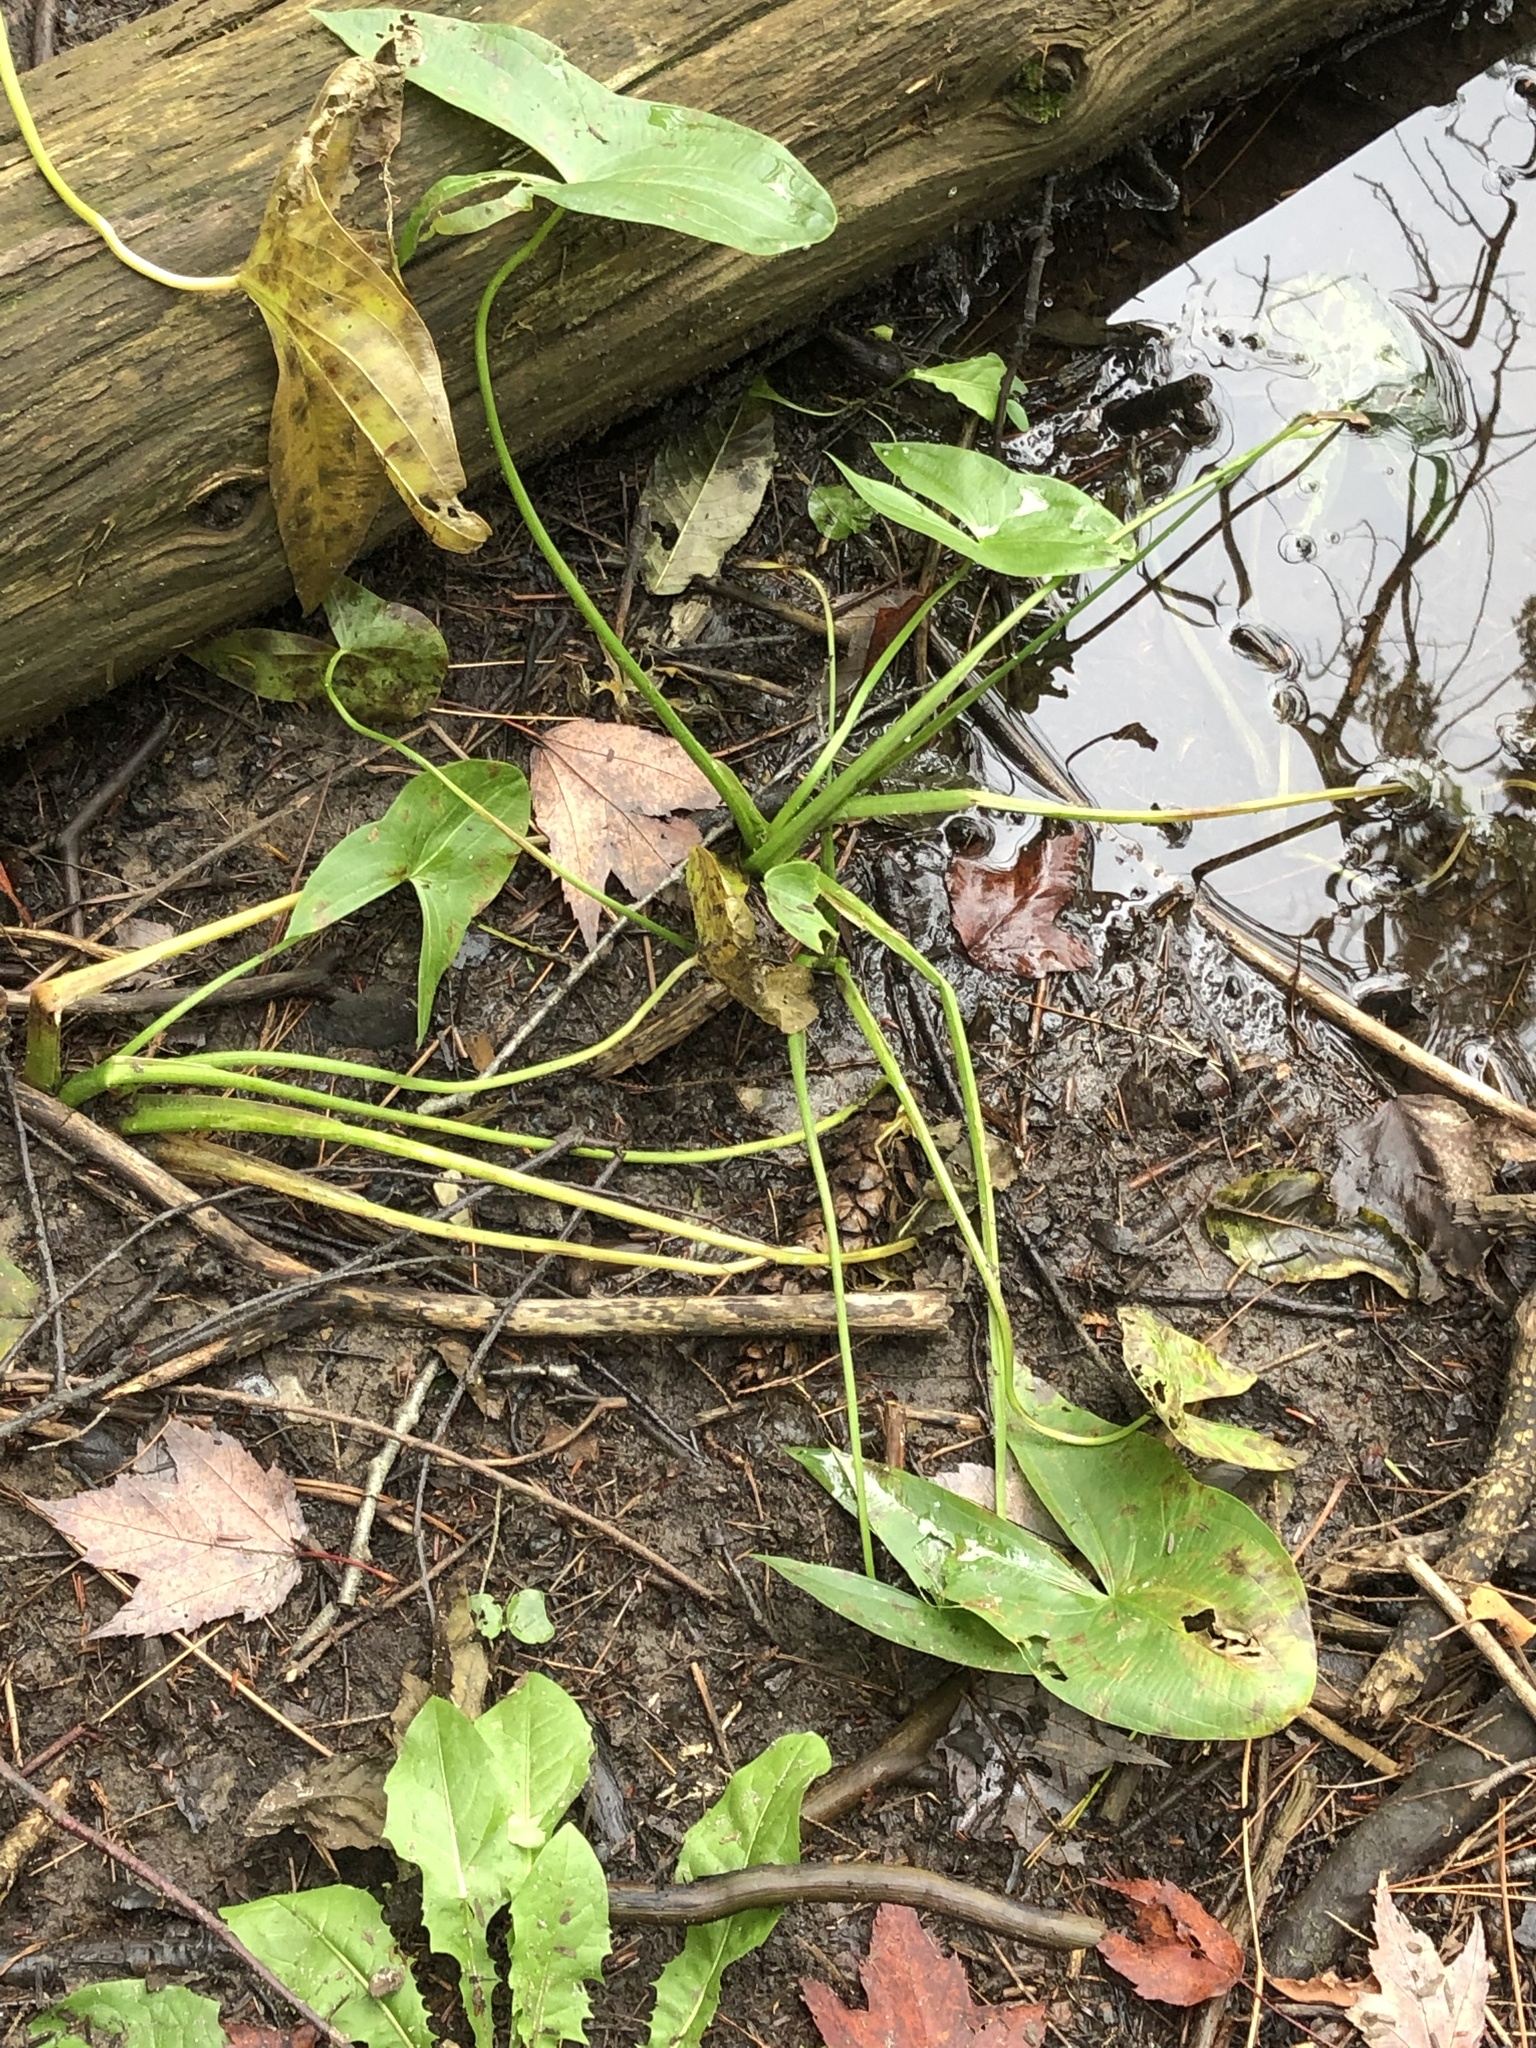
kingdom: Plantae
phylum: Tracheophyta
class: Liliopsida
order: Alismatales
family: Alismataceae
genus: Sagittaria
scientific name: Sagittaria latifolia
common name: Duck-potato
